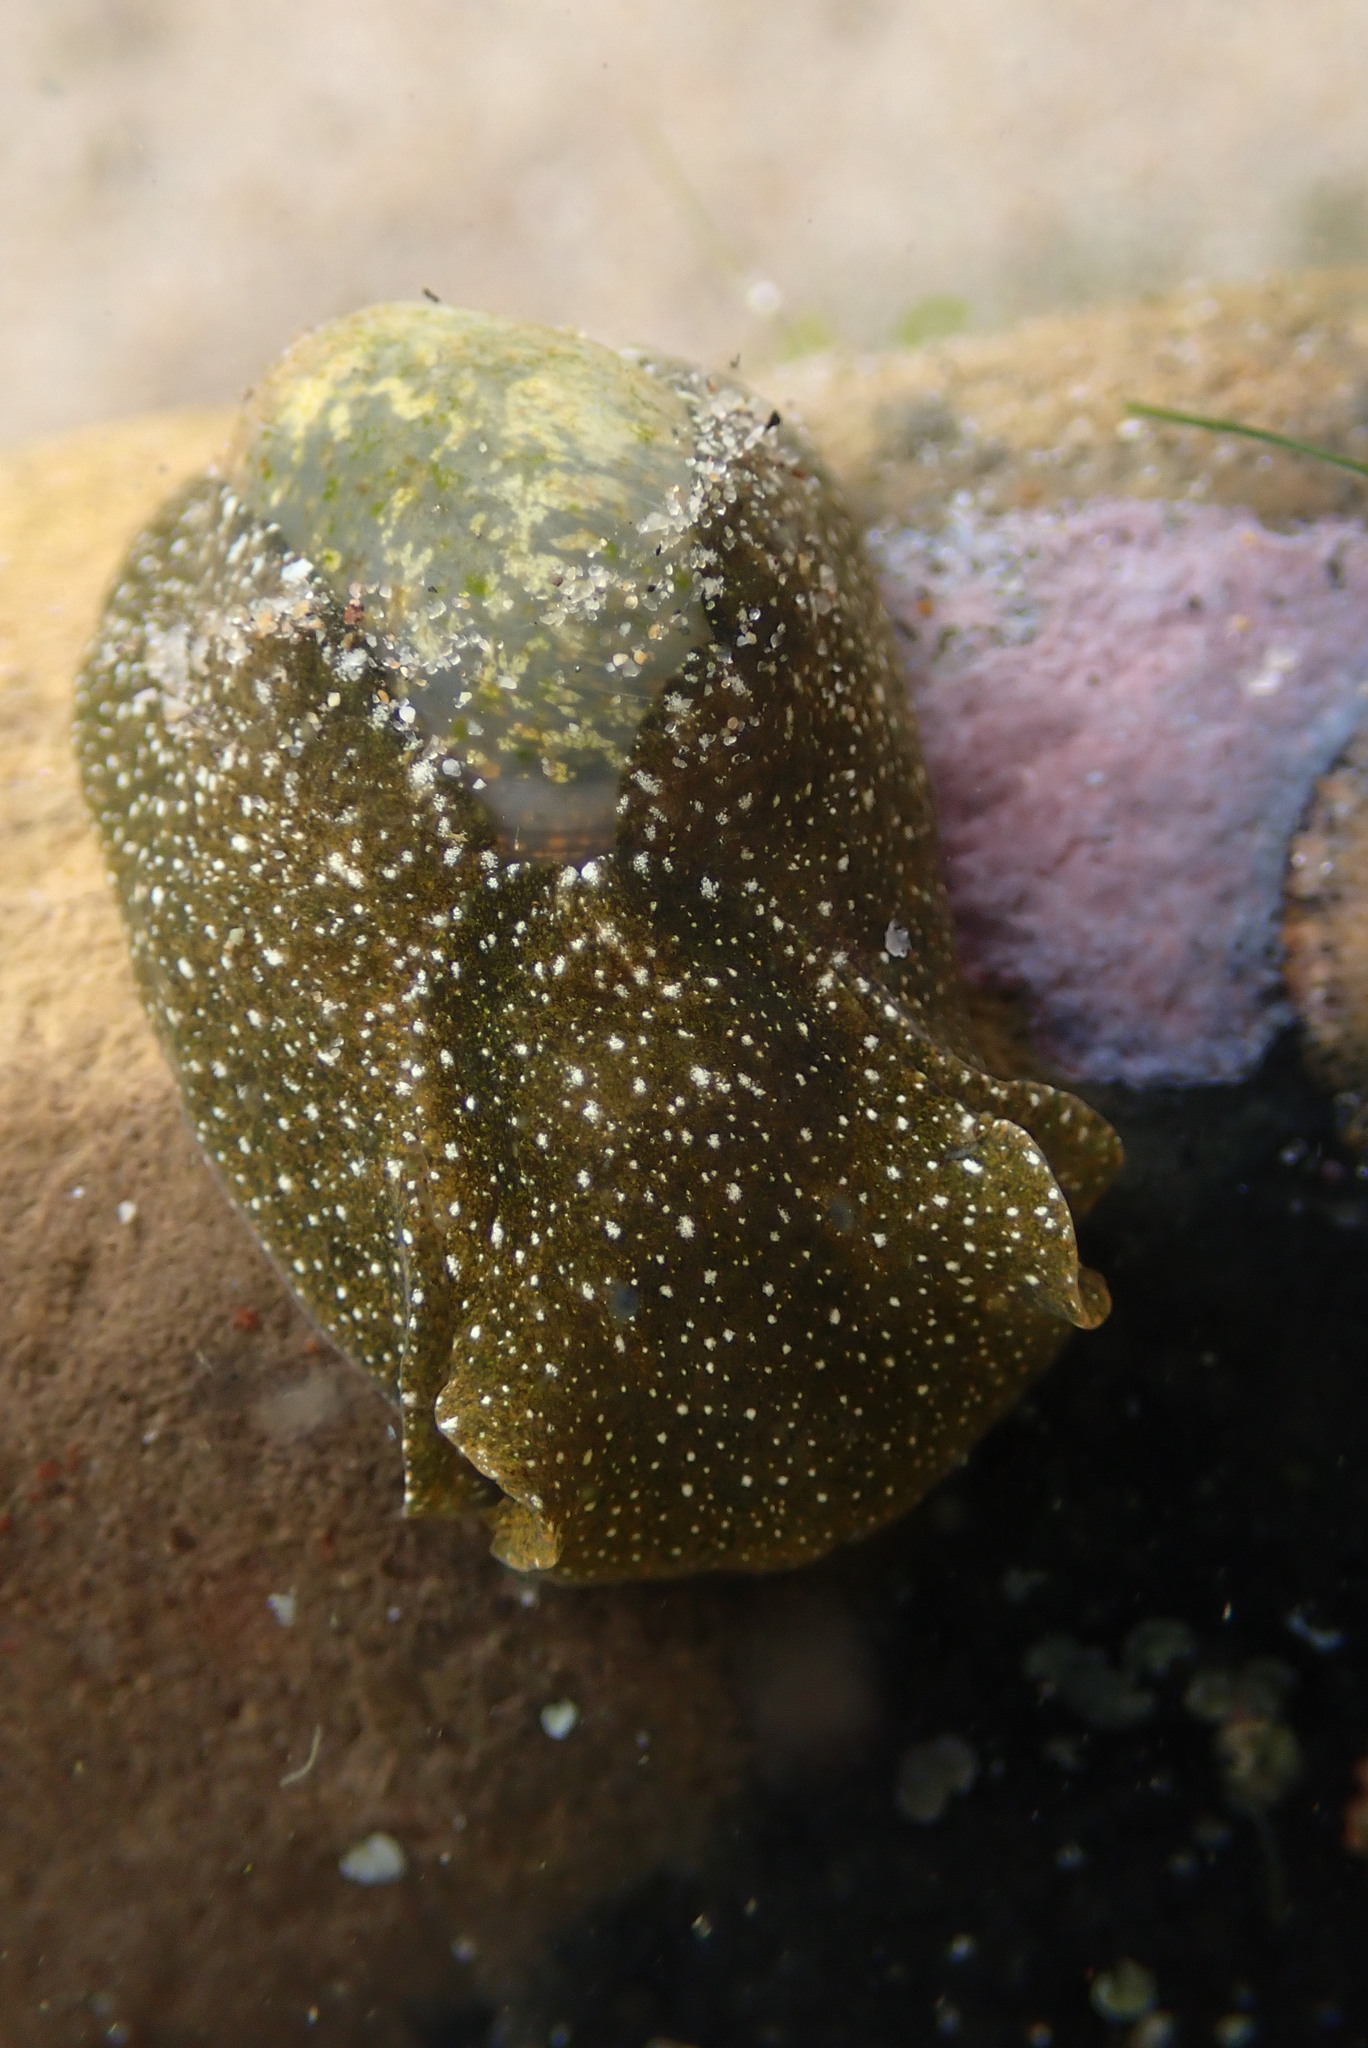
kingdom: Animalia
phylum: Mollusca
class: Gastropoda
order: Cephalaspidea
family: Haminoeidae
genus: Haminoea
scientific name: Haminoea virescens
